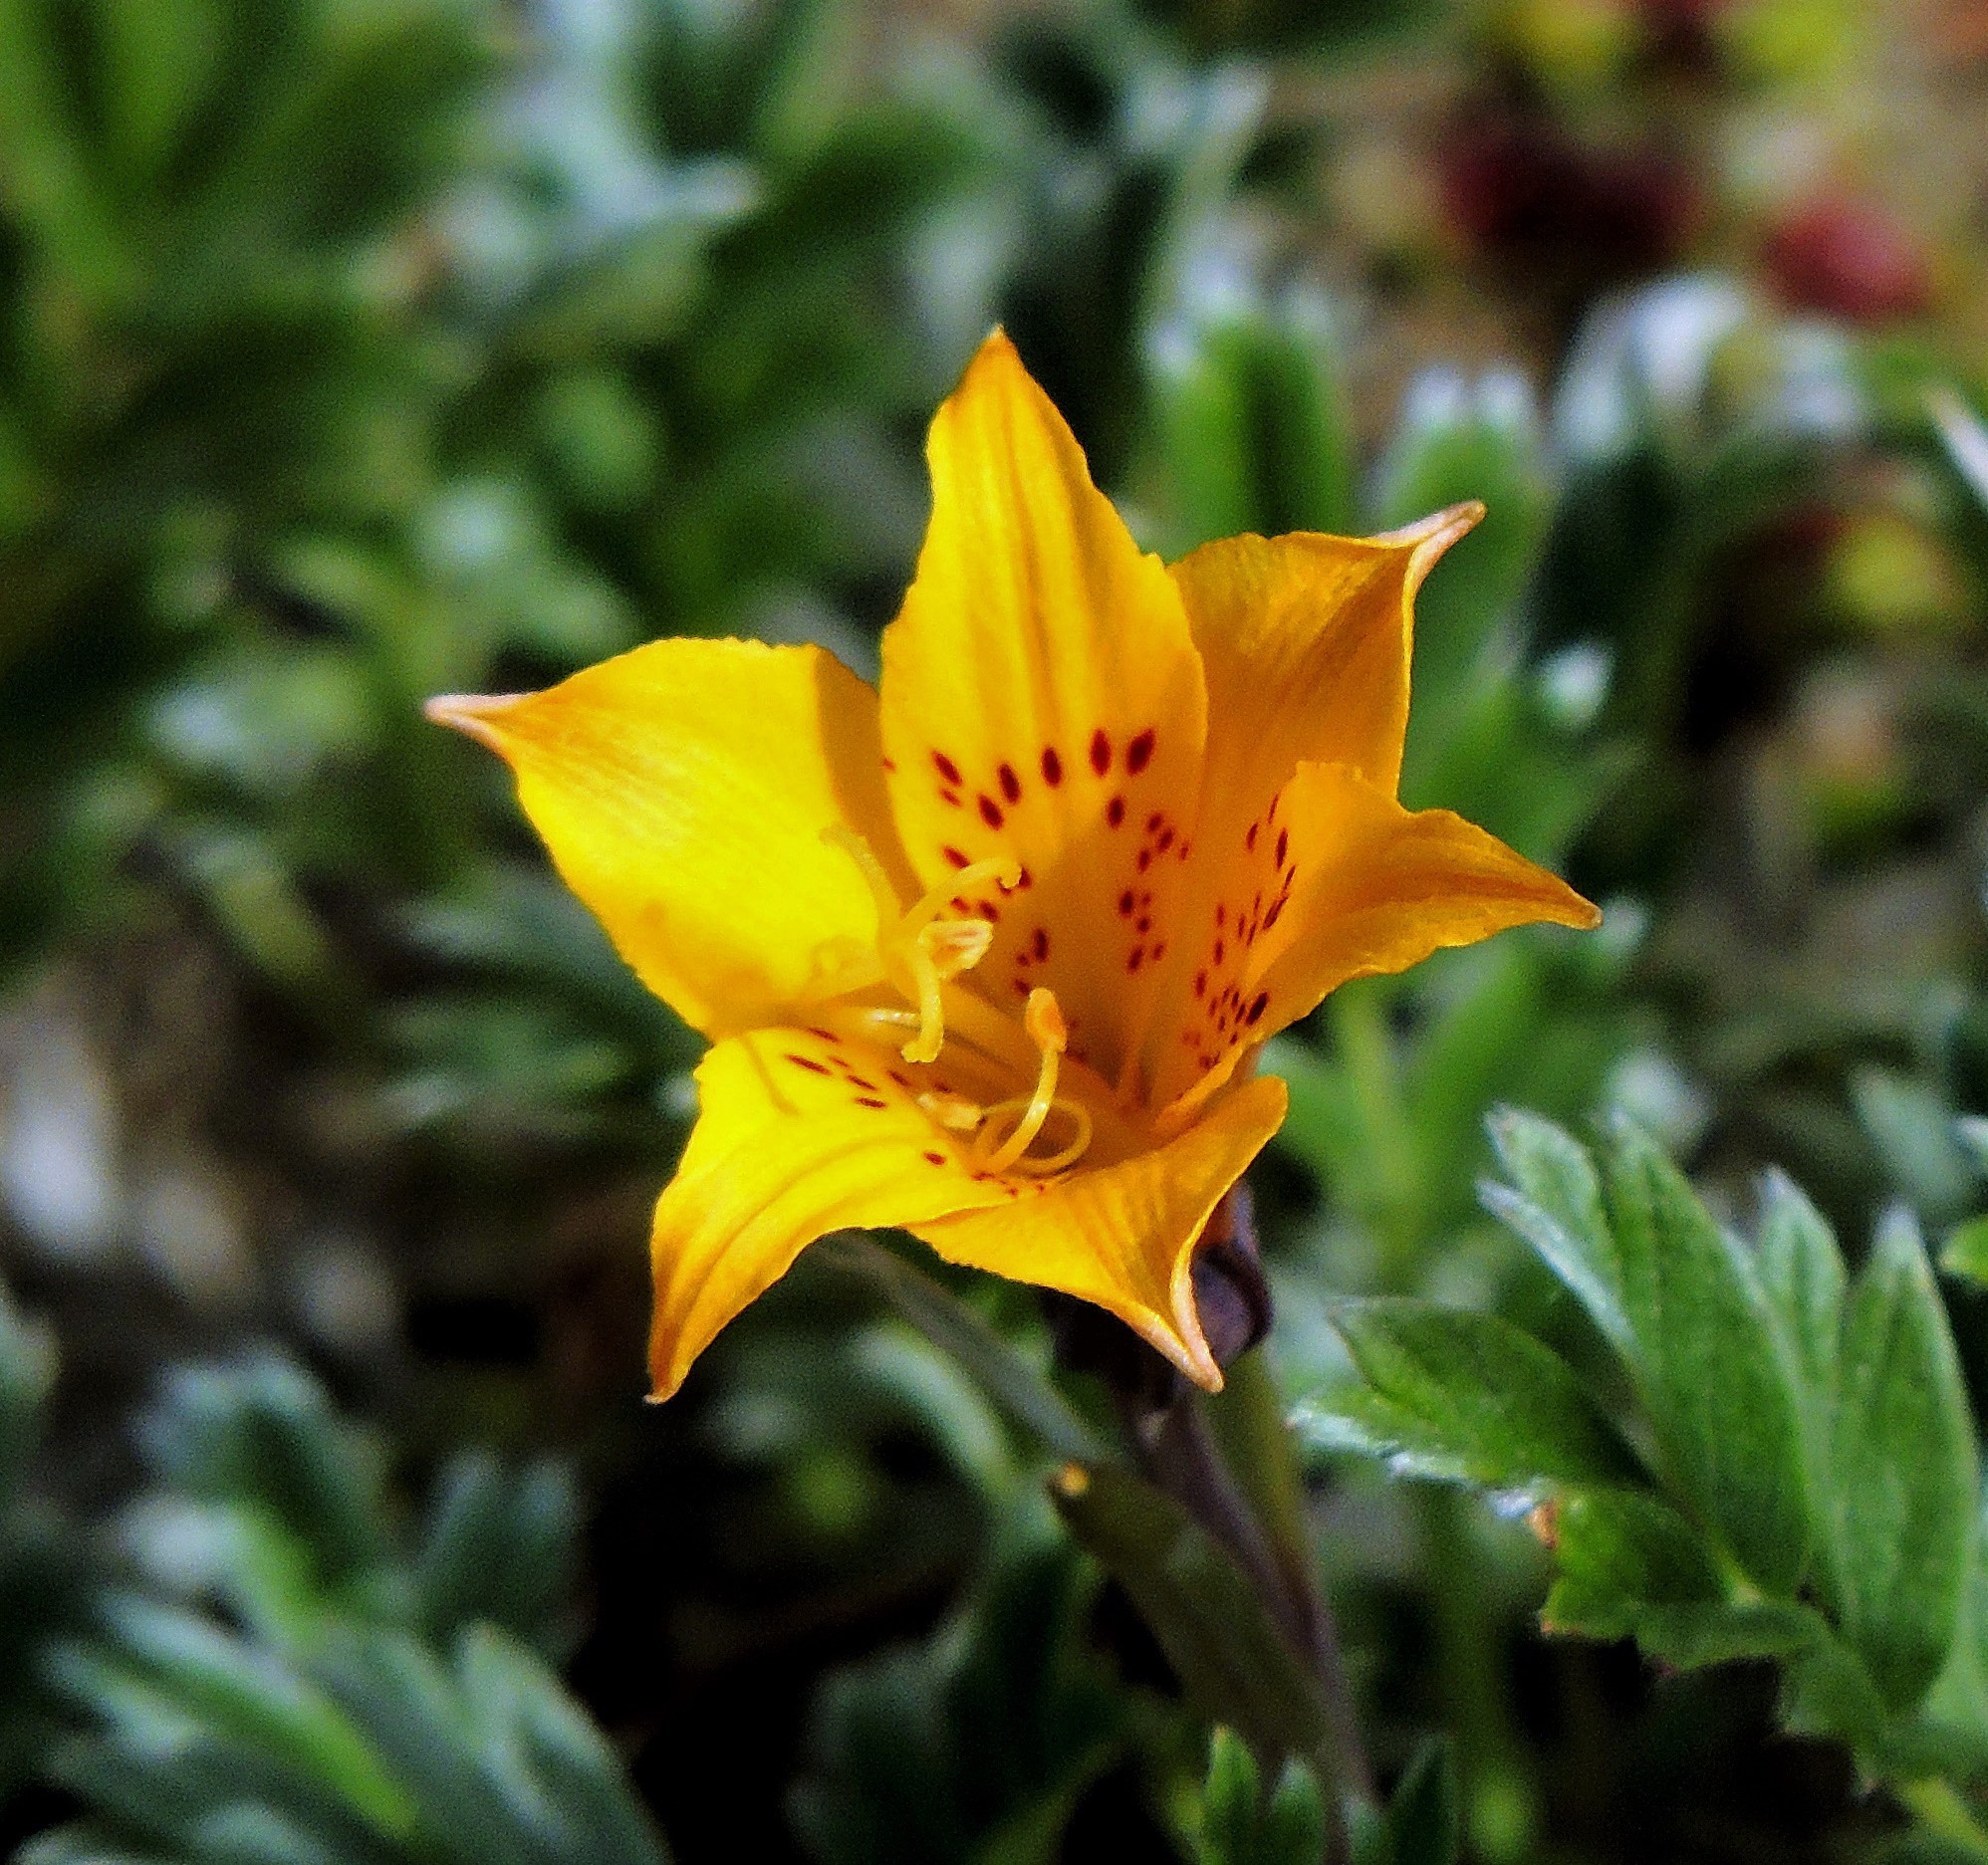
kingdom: Plantae
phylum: Tracheophyta
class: Liliopsida
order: Liliales
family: Alstroemeriaceae
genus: Alstroemeria
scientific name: Alstroemeria patagonica
